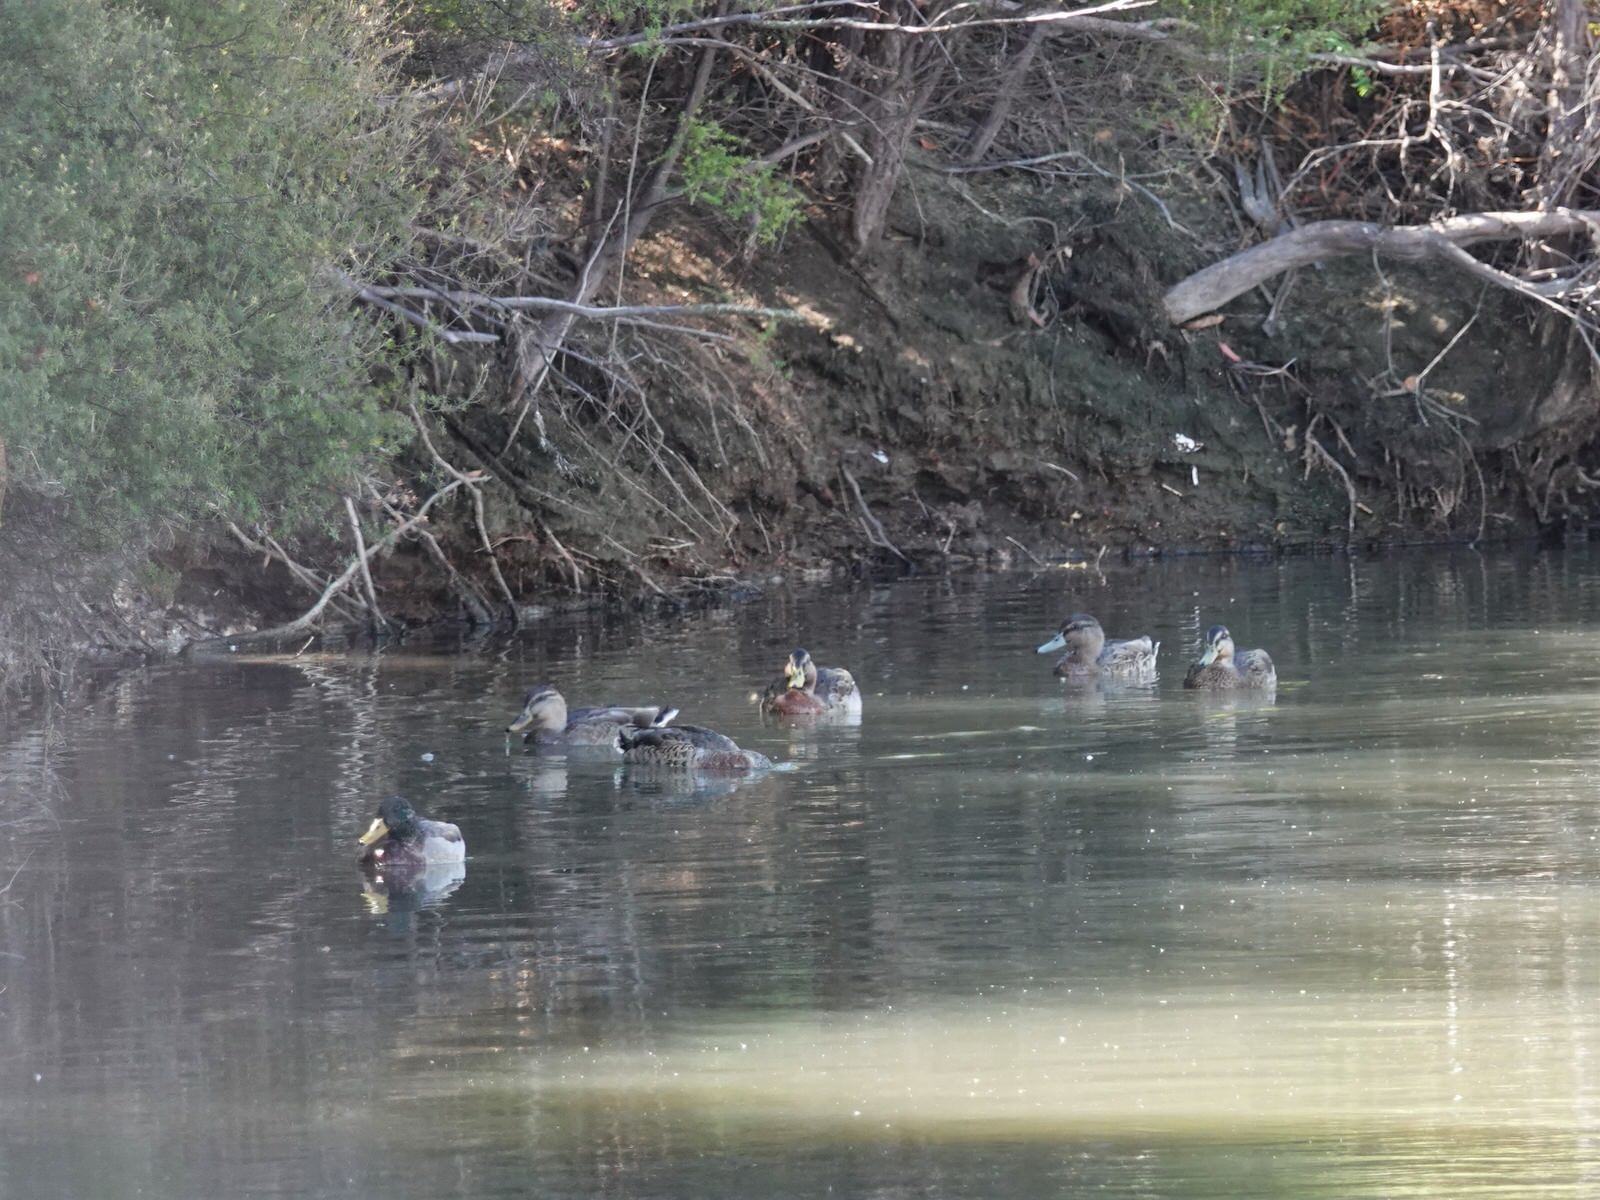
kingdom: Animalia
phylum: Chordata
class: Aves
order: Anseriformes
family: Anatidae
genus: Anas
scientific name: Anas platyrhynchos
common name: Mallard
